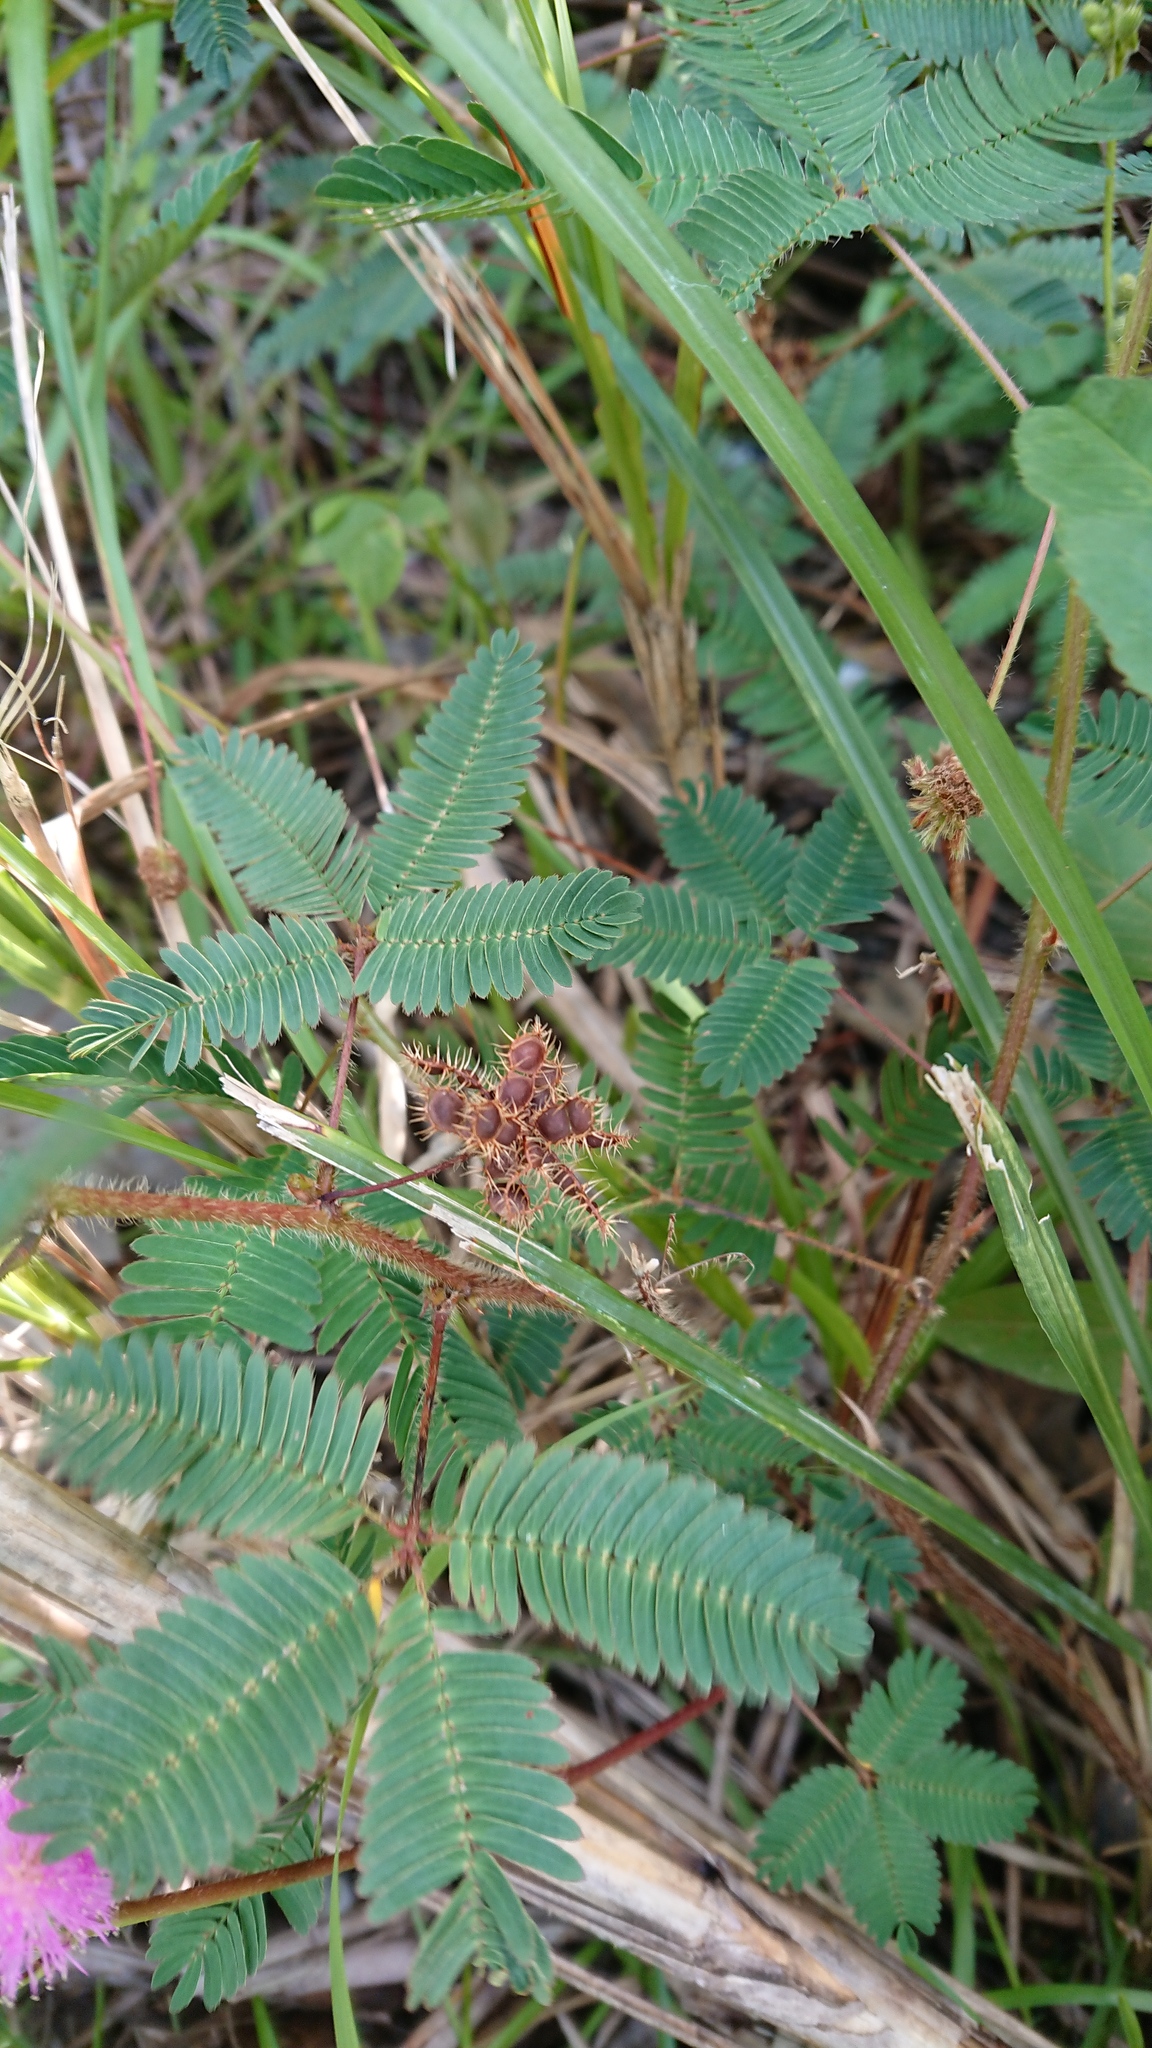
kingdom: Plantae
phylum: Tracheophyta
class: Magnoliopsida
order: Fabales
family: Fabaceae
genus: Mimosa
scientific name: Mimosa pudica
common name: Sensitive plant
